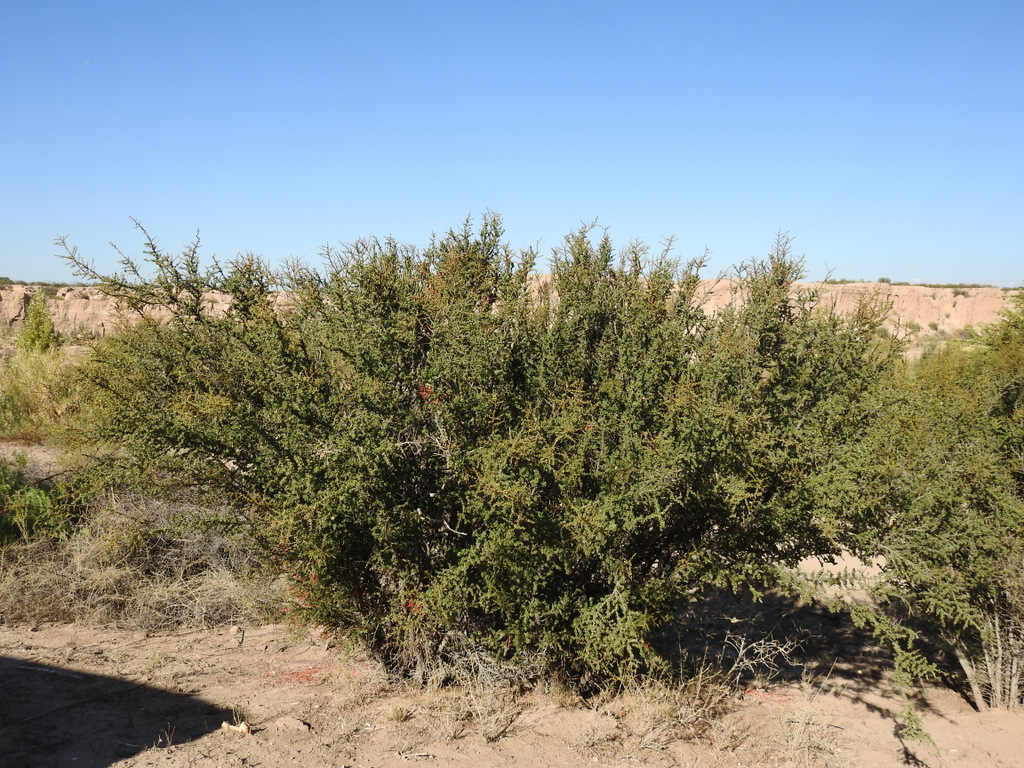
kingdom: Plantae
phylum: Tracheophyta
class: Magnoliopsida
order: Rosales
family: Rhamnaceae
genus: Condalia
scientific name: Condalia microphylla
